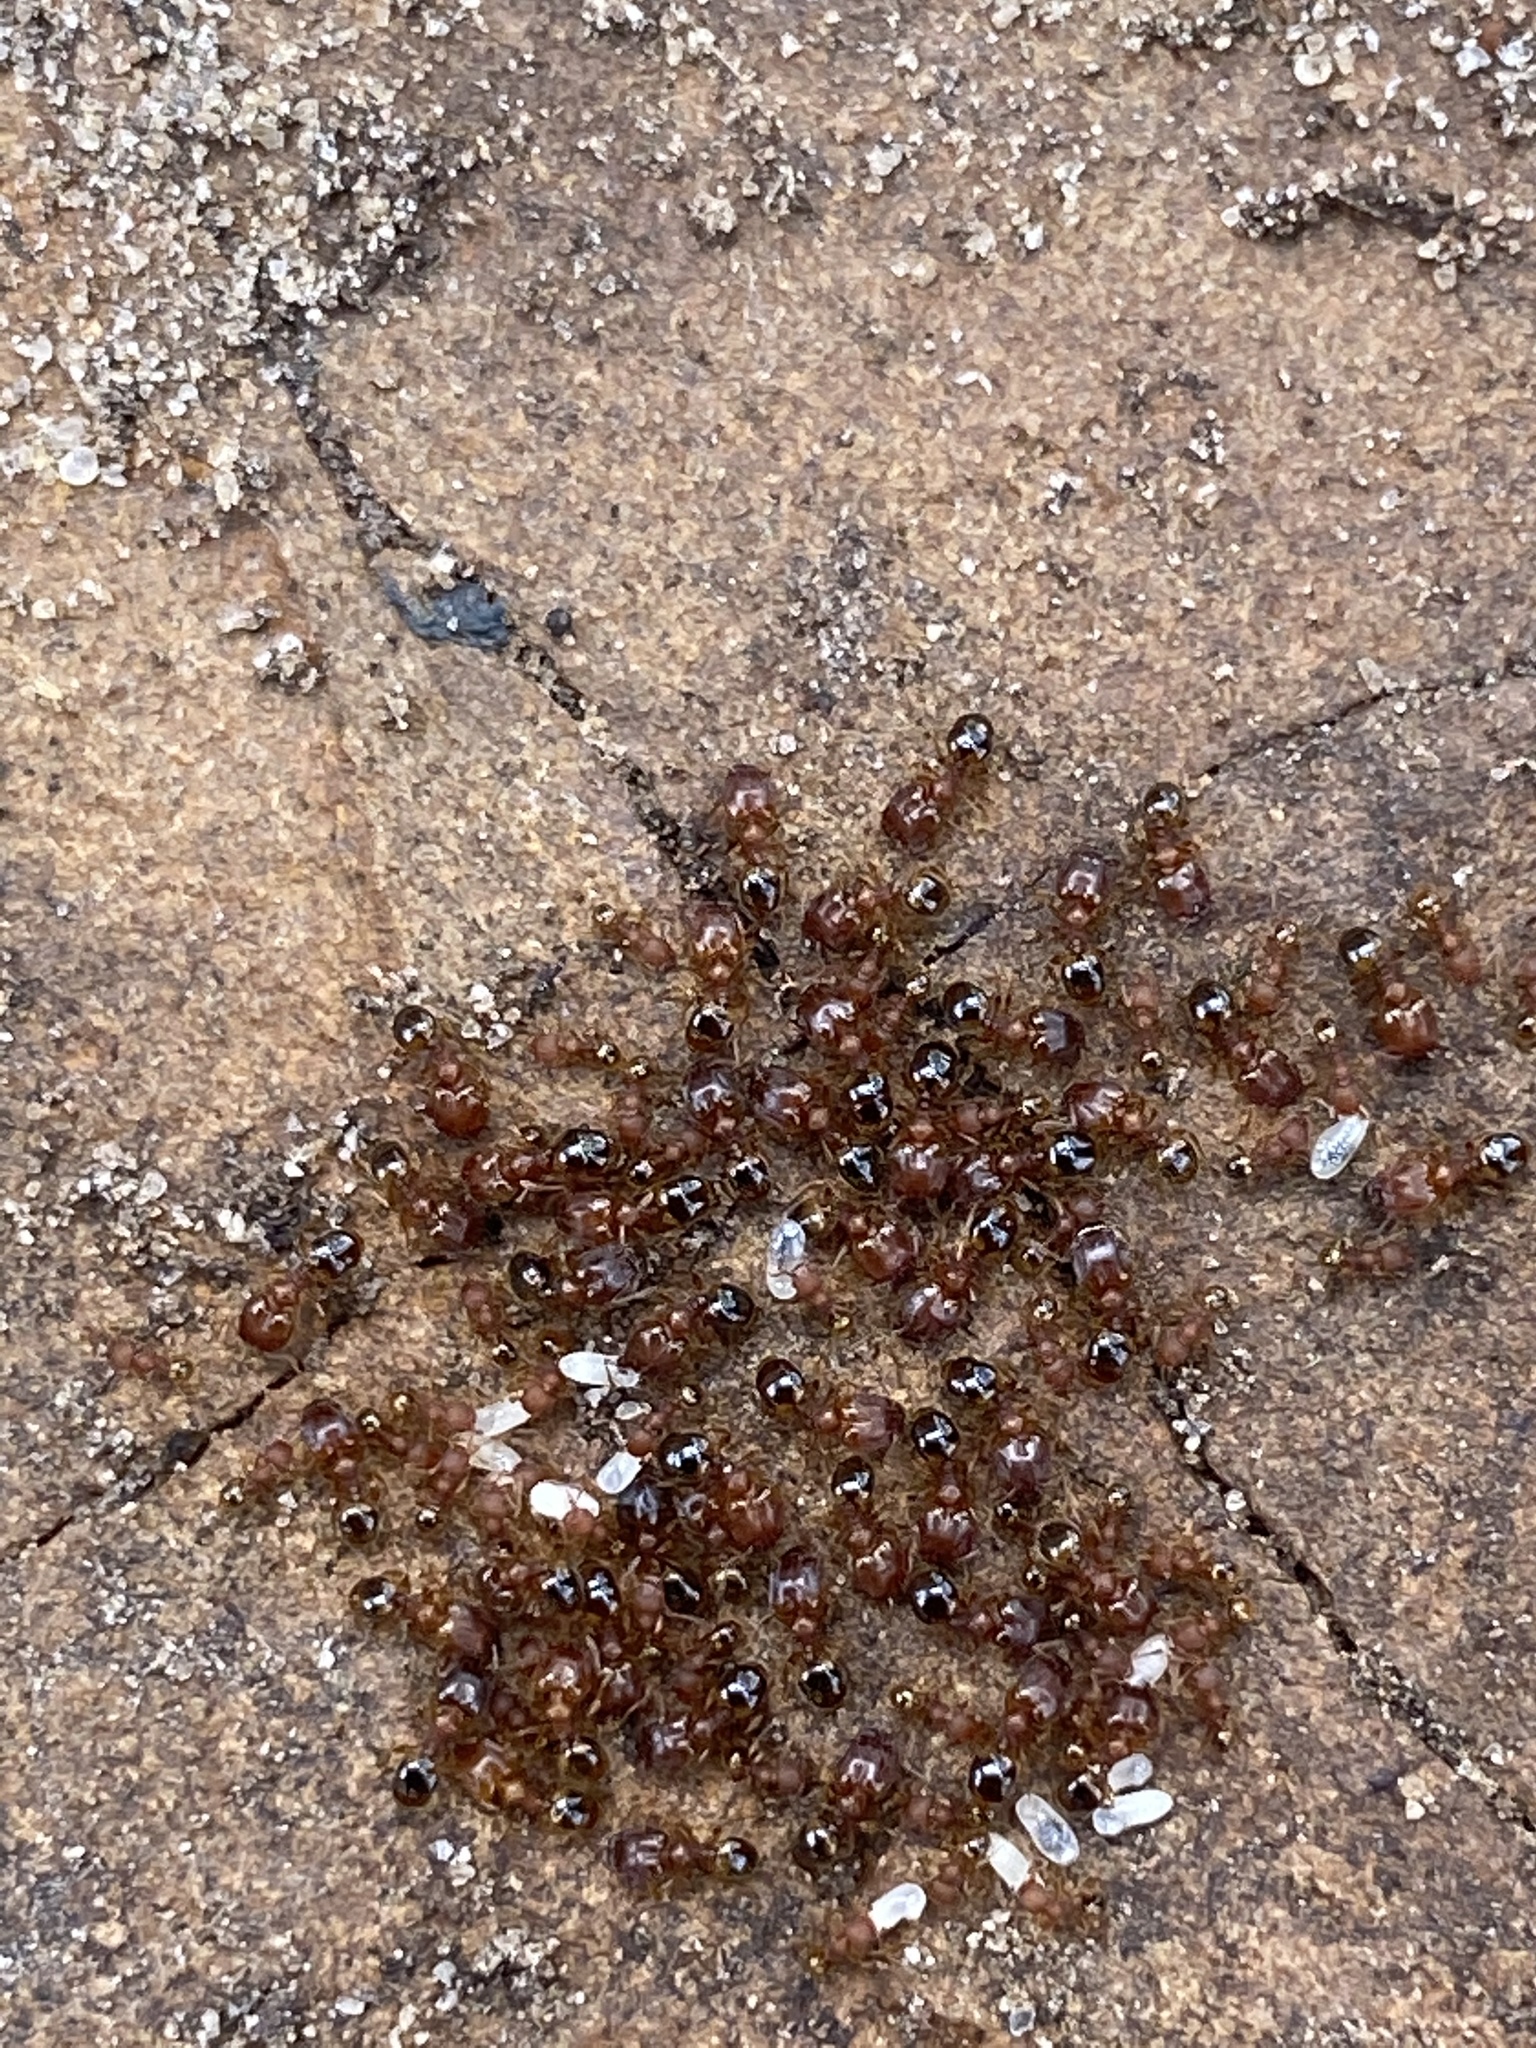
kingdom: Animalia
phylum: Arthropoda
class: Insecta
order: Hymenoptera
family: Formicidae
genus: Pheidole
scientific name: Pheidole navigans
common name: Navigating big-headed ant
